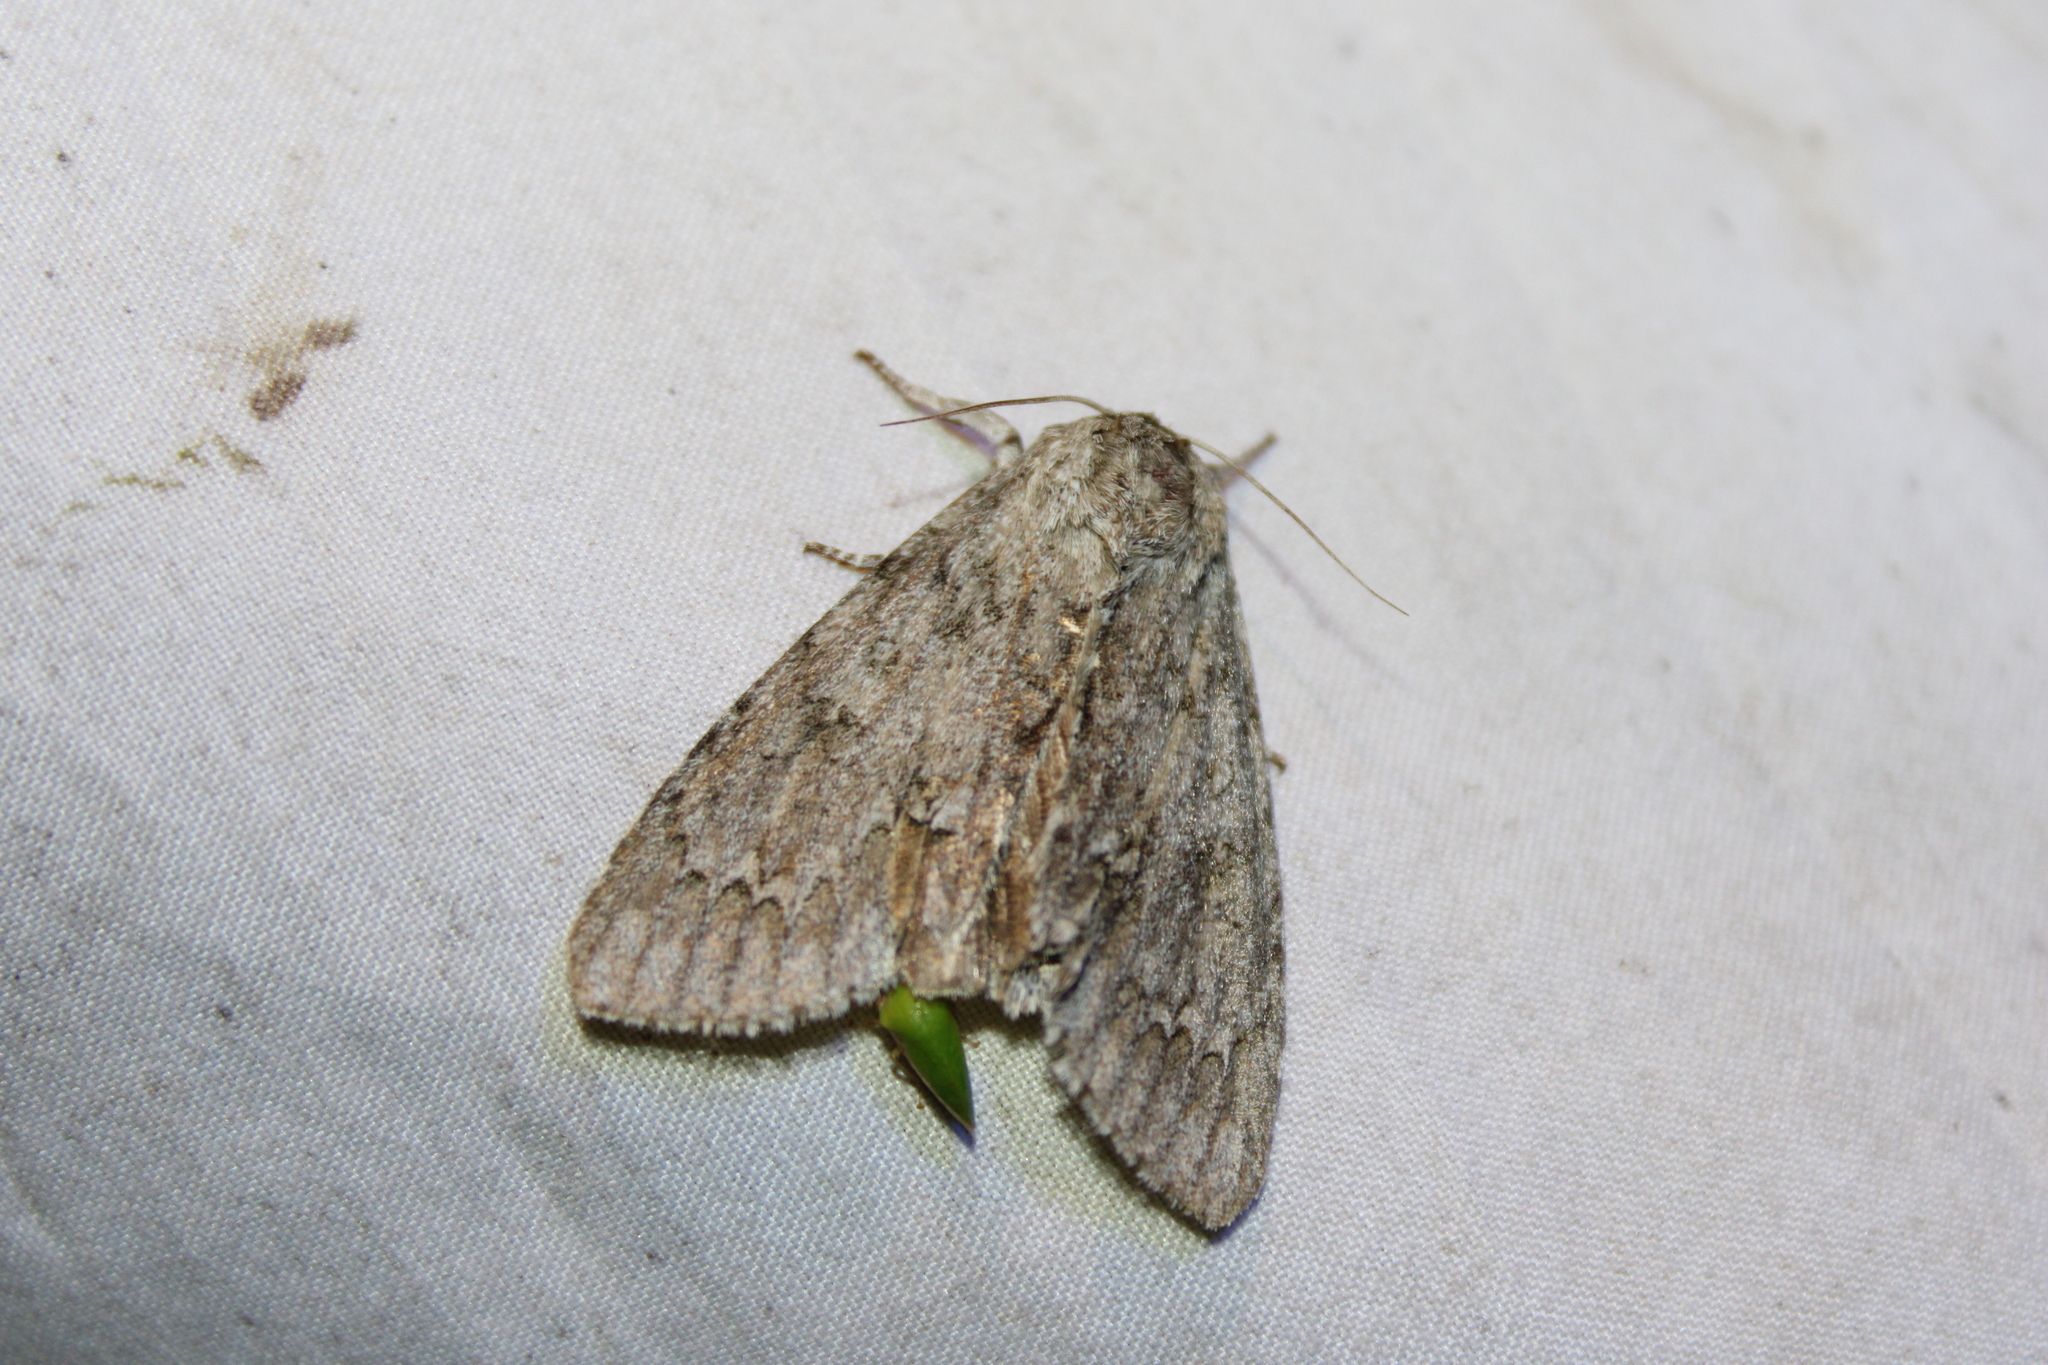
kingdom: Animalia
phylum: Arthropoda
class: Insecta
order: Lepidoptera
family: Noctuidae
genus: Acronicta
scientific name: Acronicta americana
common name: American dagger
